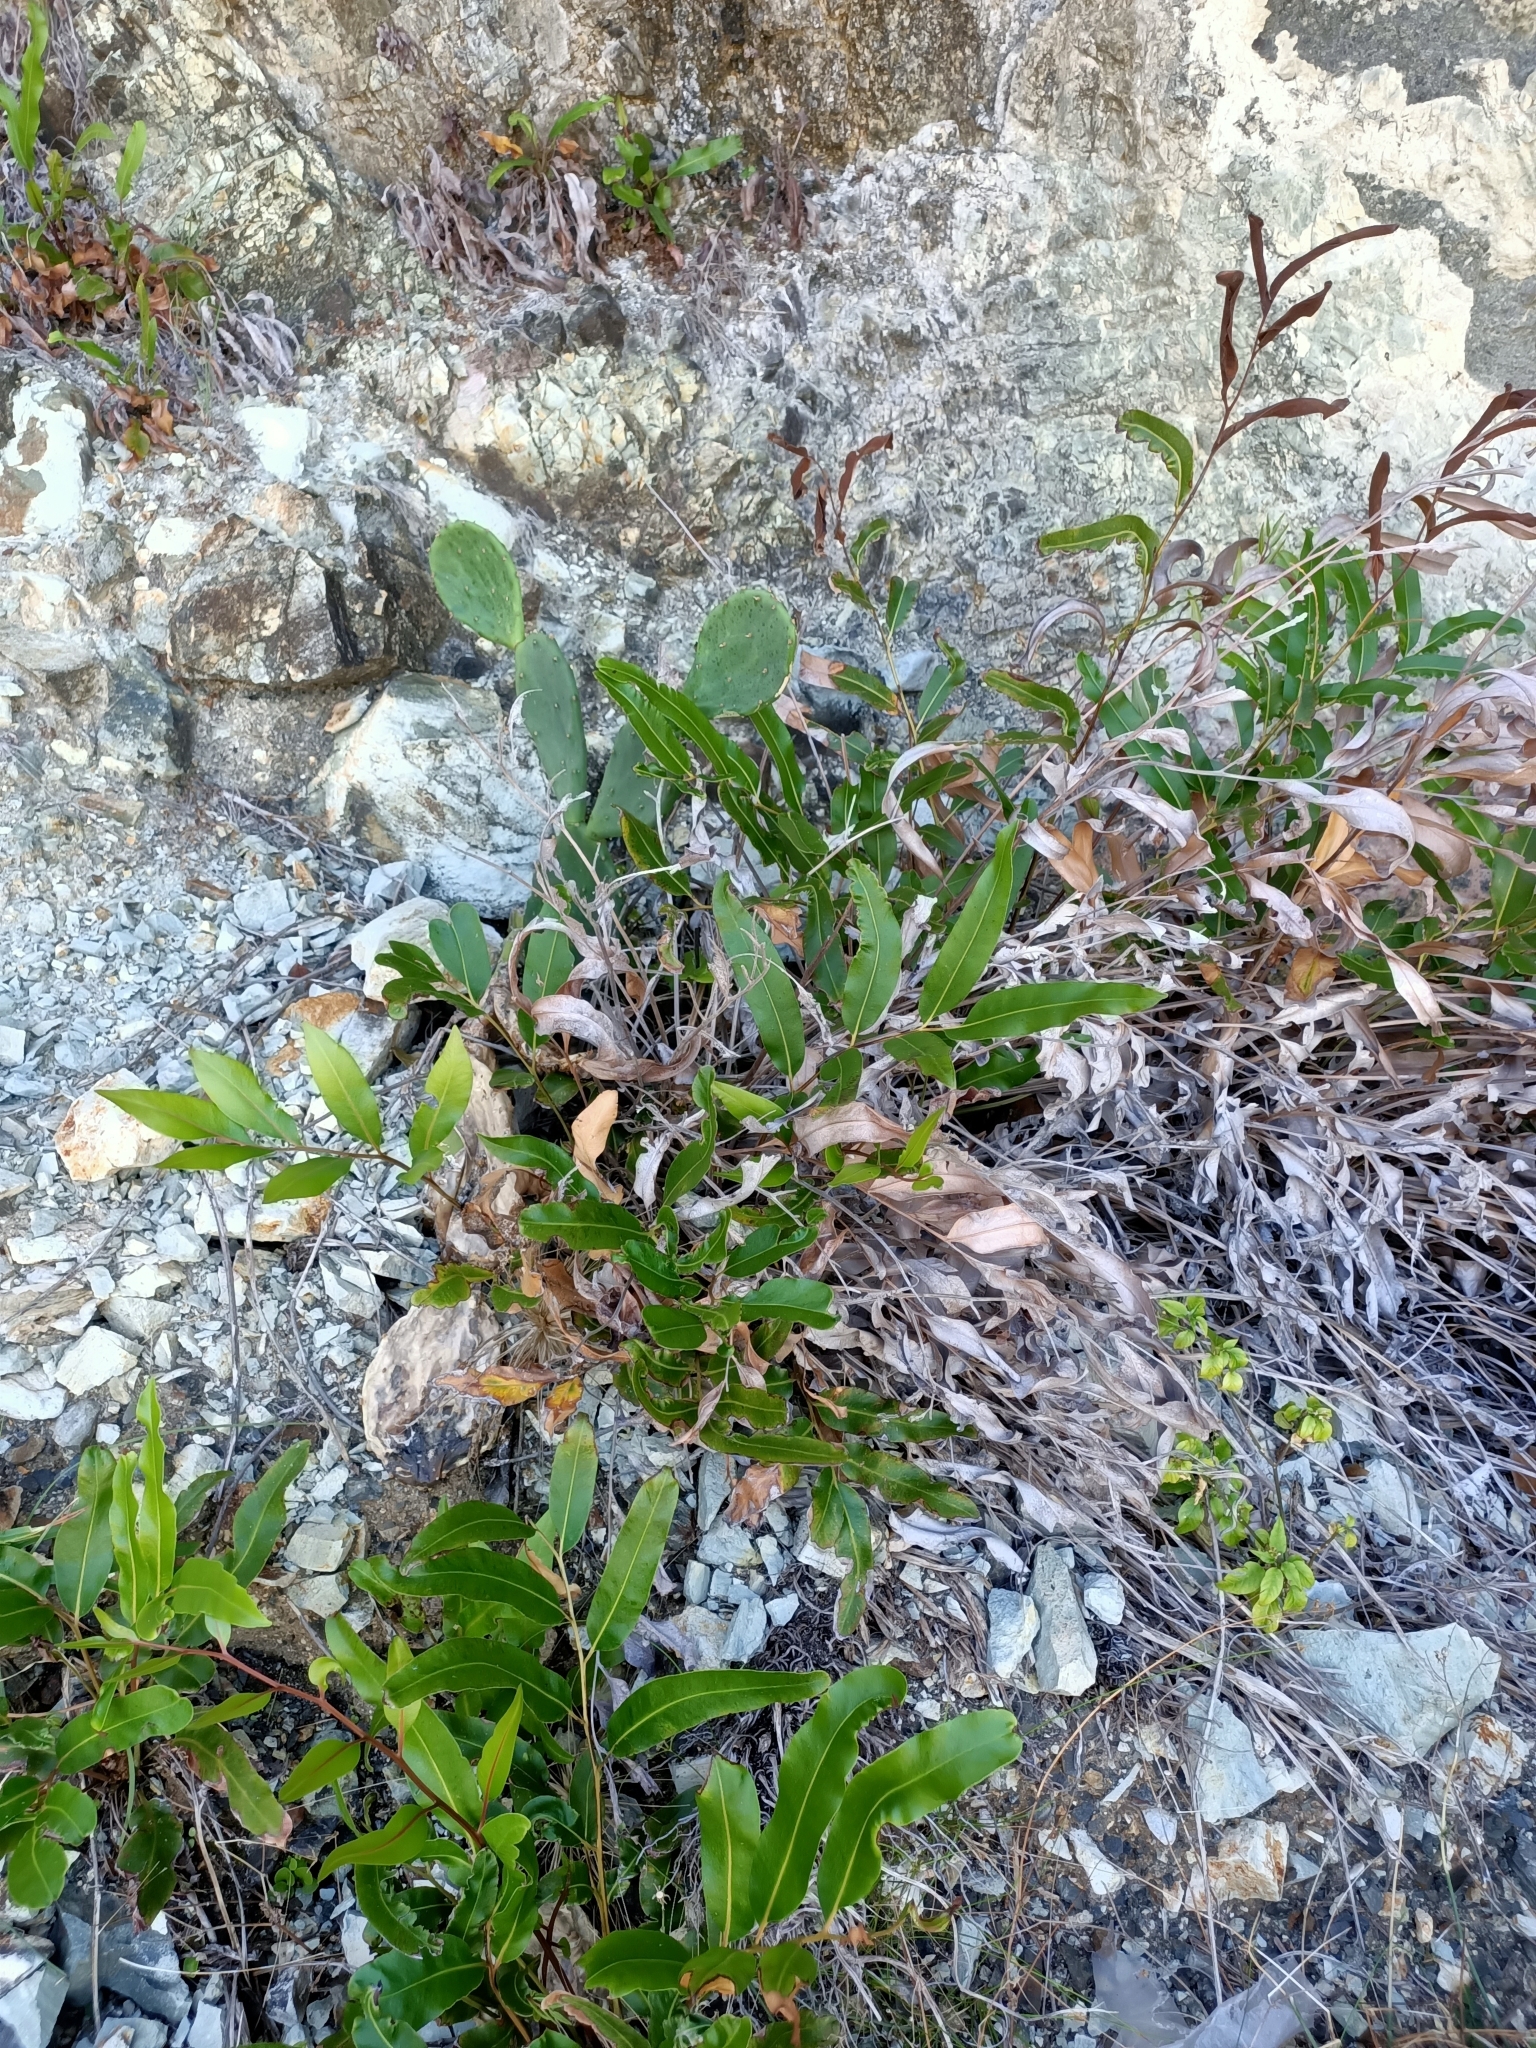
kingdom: Plantae
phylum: Tracheophyta
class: Polypodiopsida
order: Polypodiales
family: Pteridaceae
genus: Acrostichum
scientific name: Acrostichum speciosum
